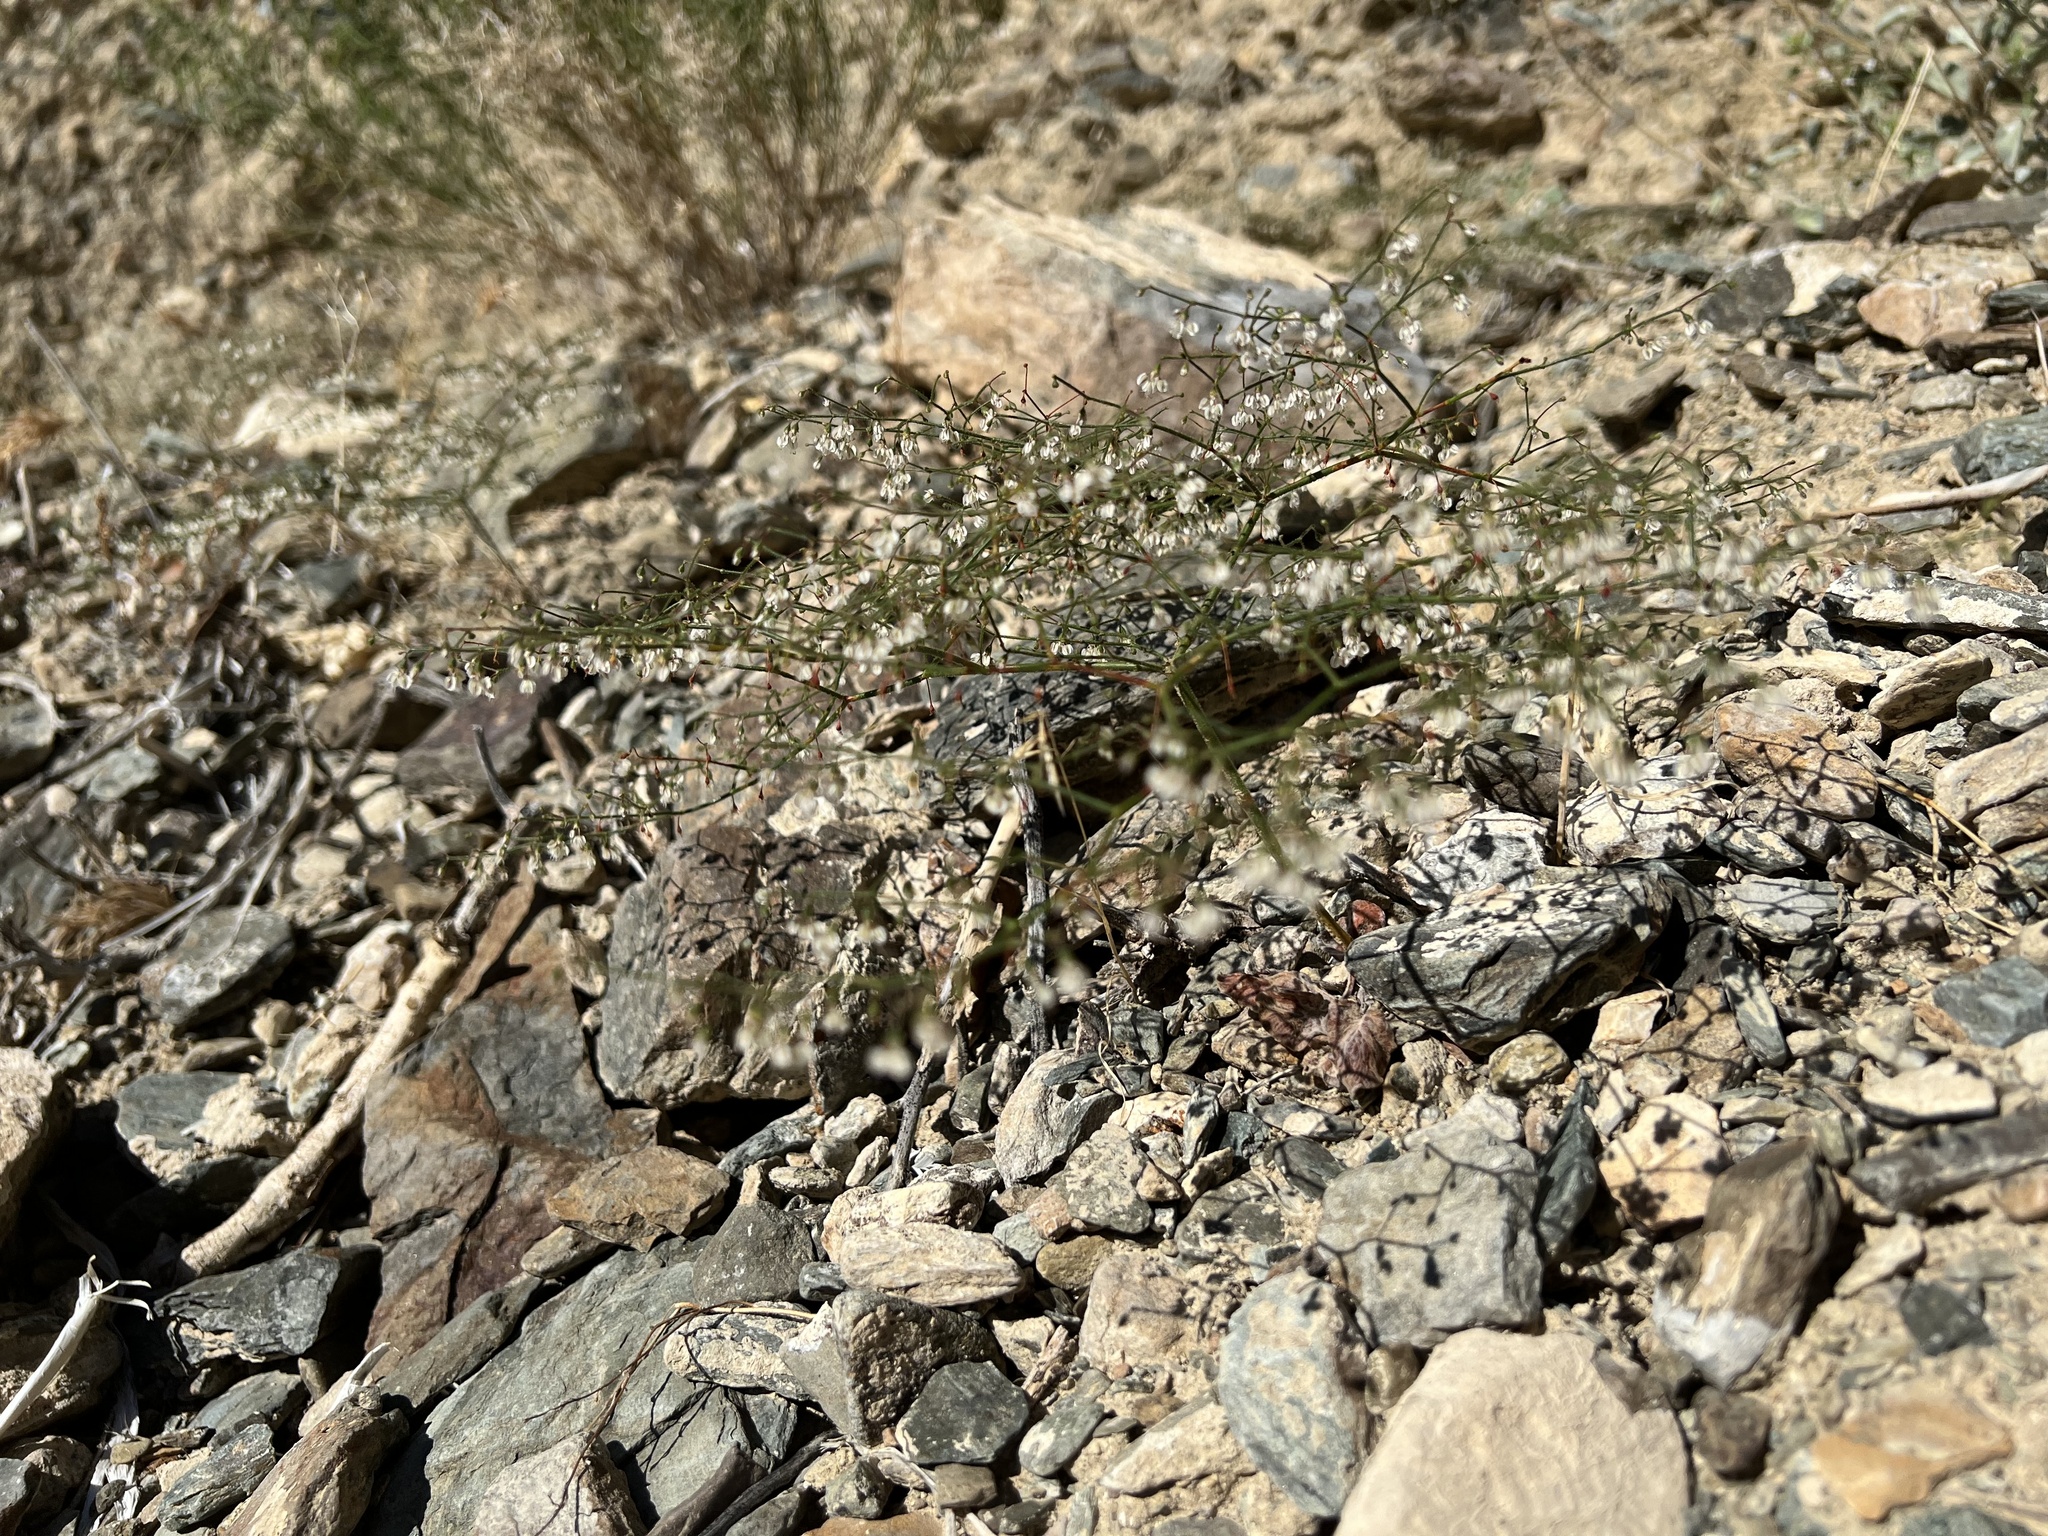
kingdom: Plantae
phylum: Tracheophyta
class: Magnoliopsida
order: Caryophyllales
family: Polygonaceae
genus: Eriogonum
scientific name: Eriogonum brachypodum
